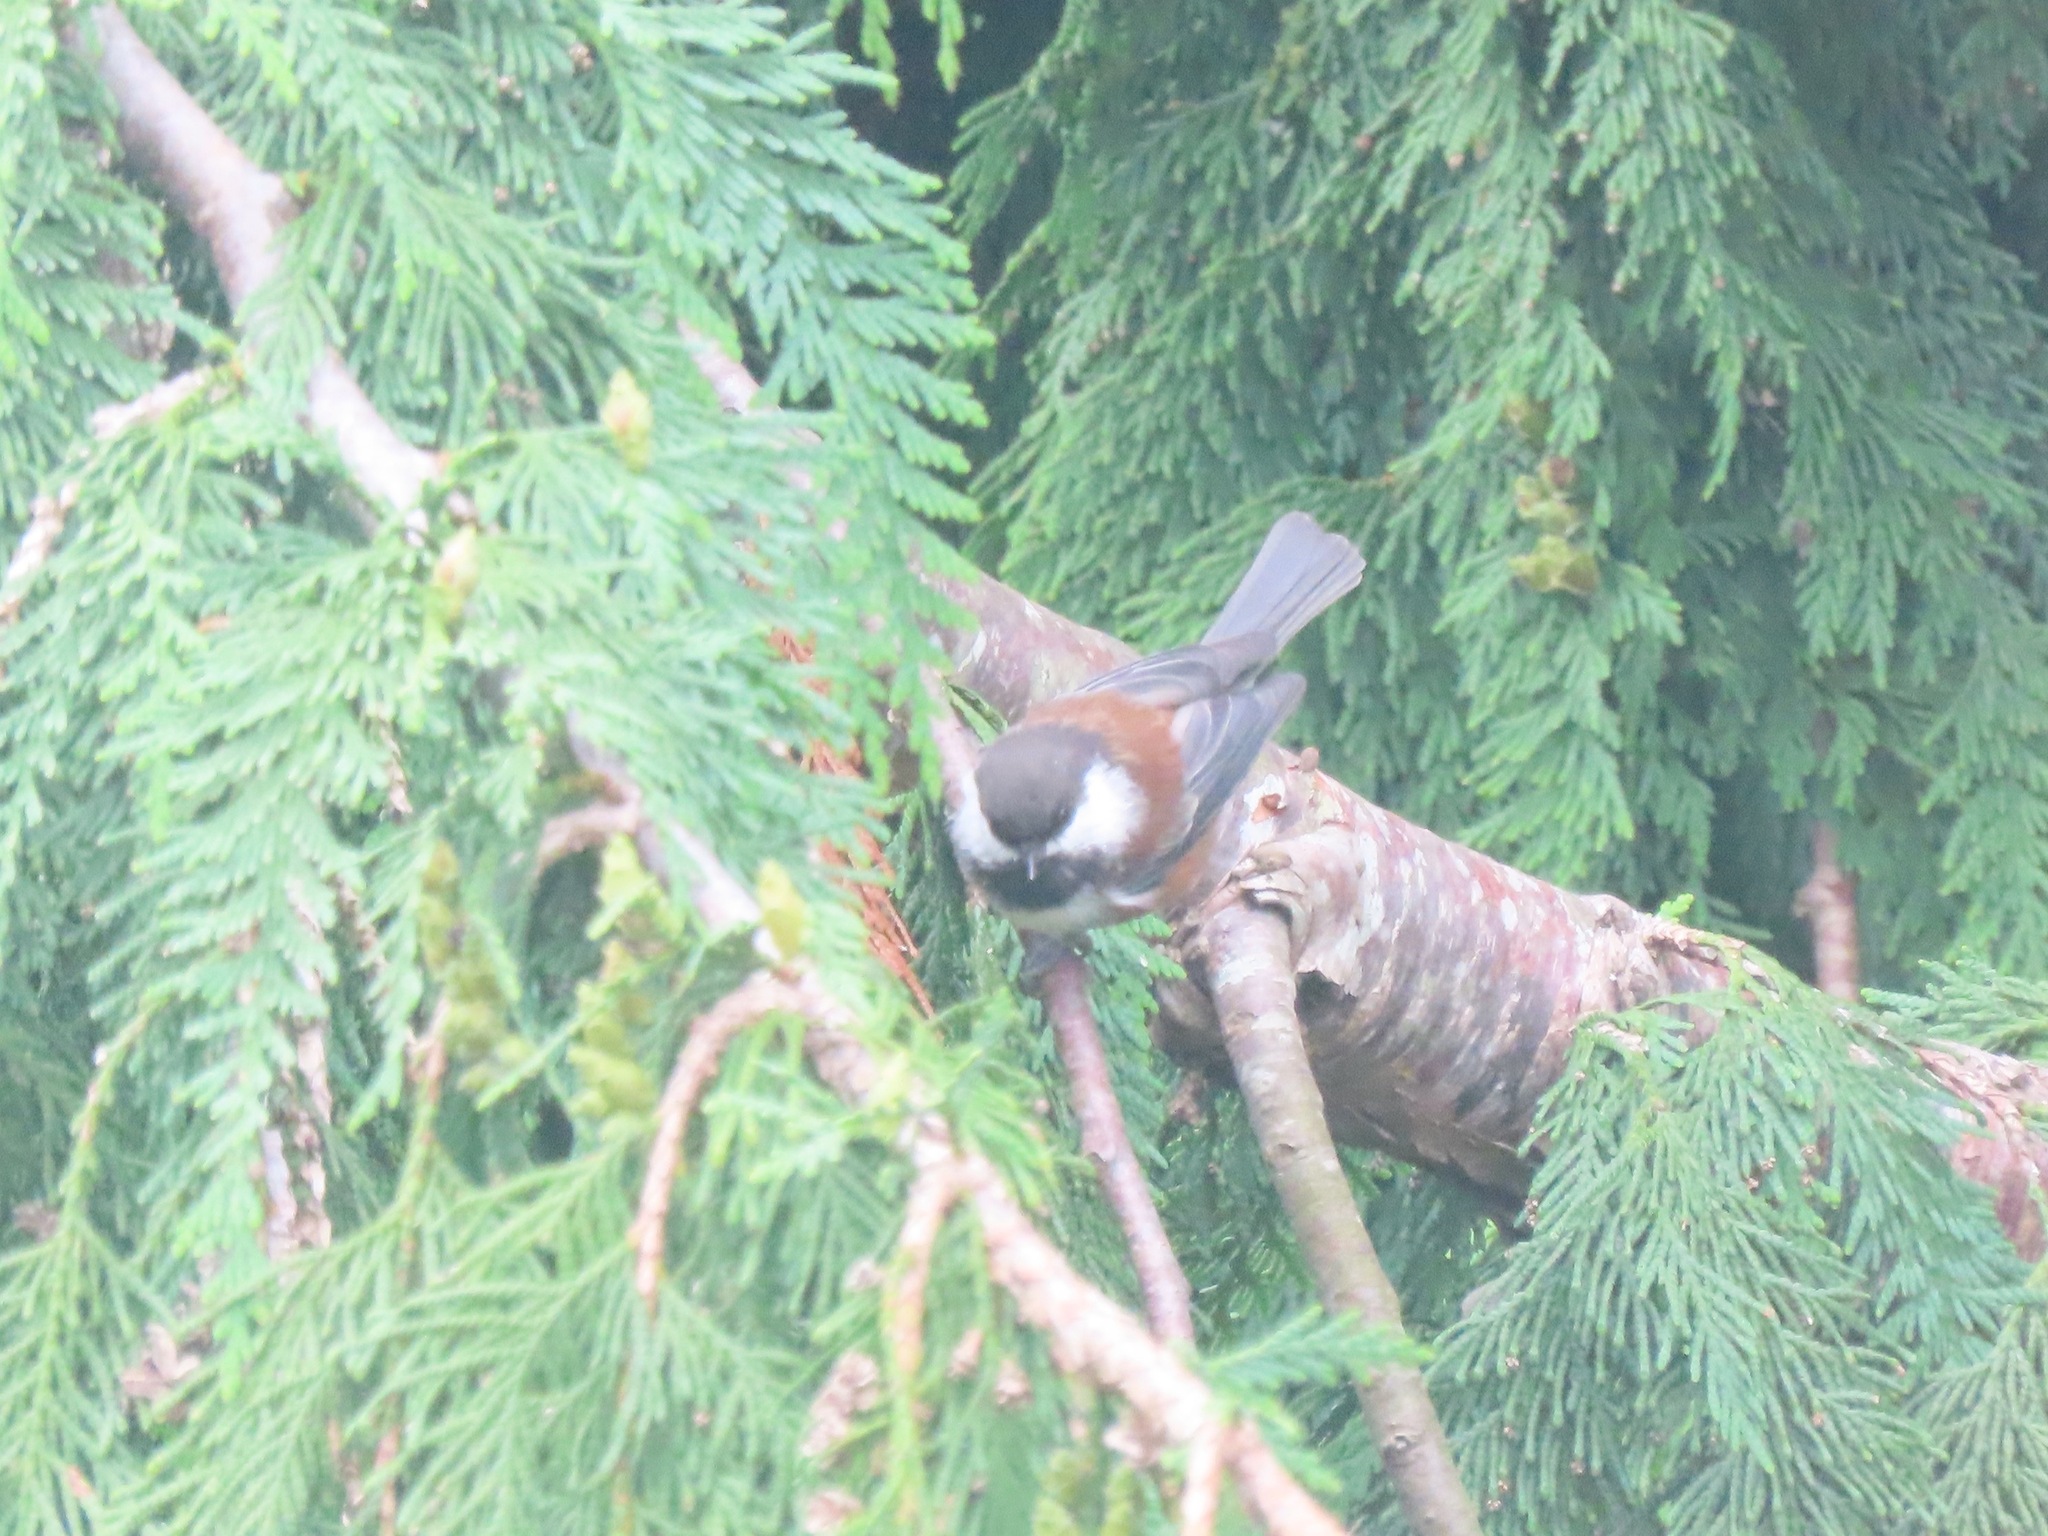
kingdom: Animalia
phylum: Chordata
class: Aves
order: Passeriformes
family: Paridae
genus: Poecile
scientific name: Poecile rufescens
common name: Chestnut-backed chickadee
